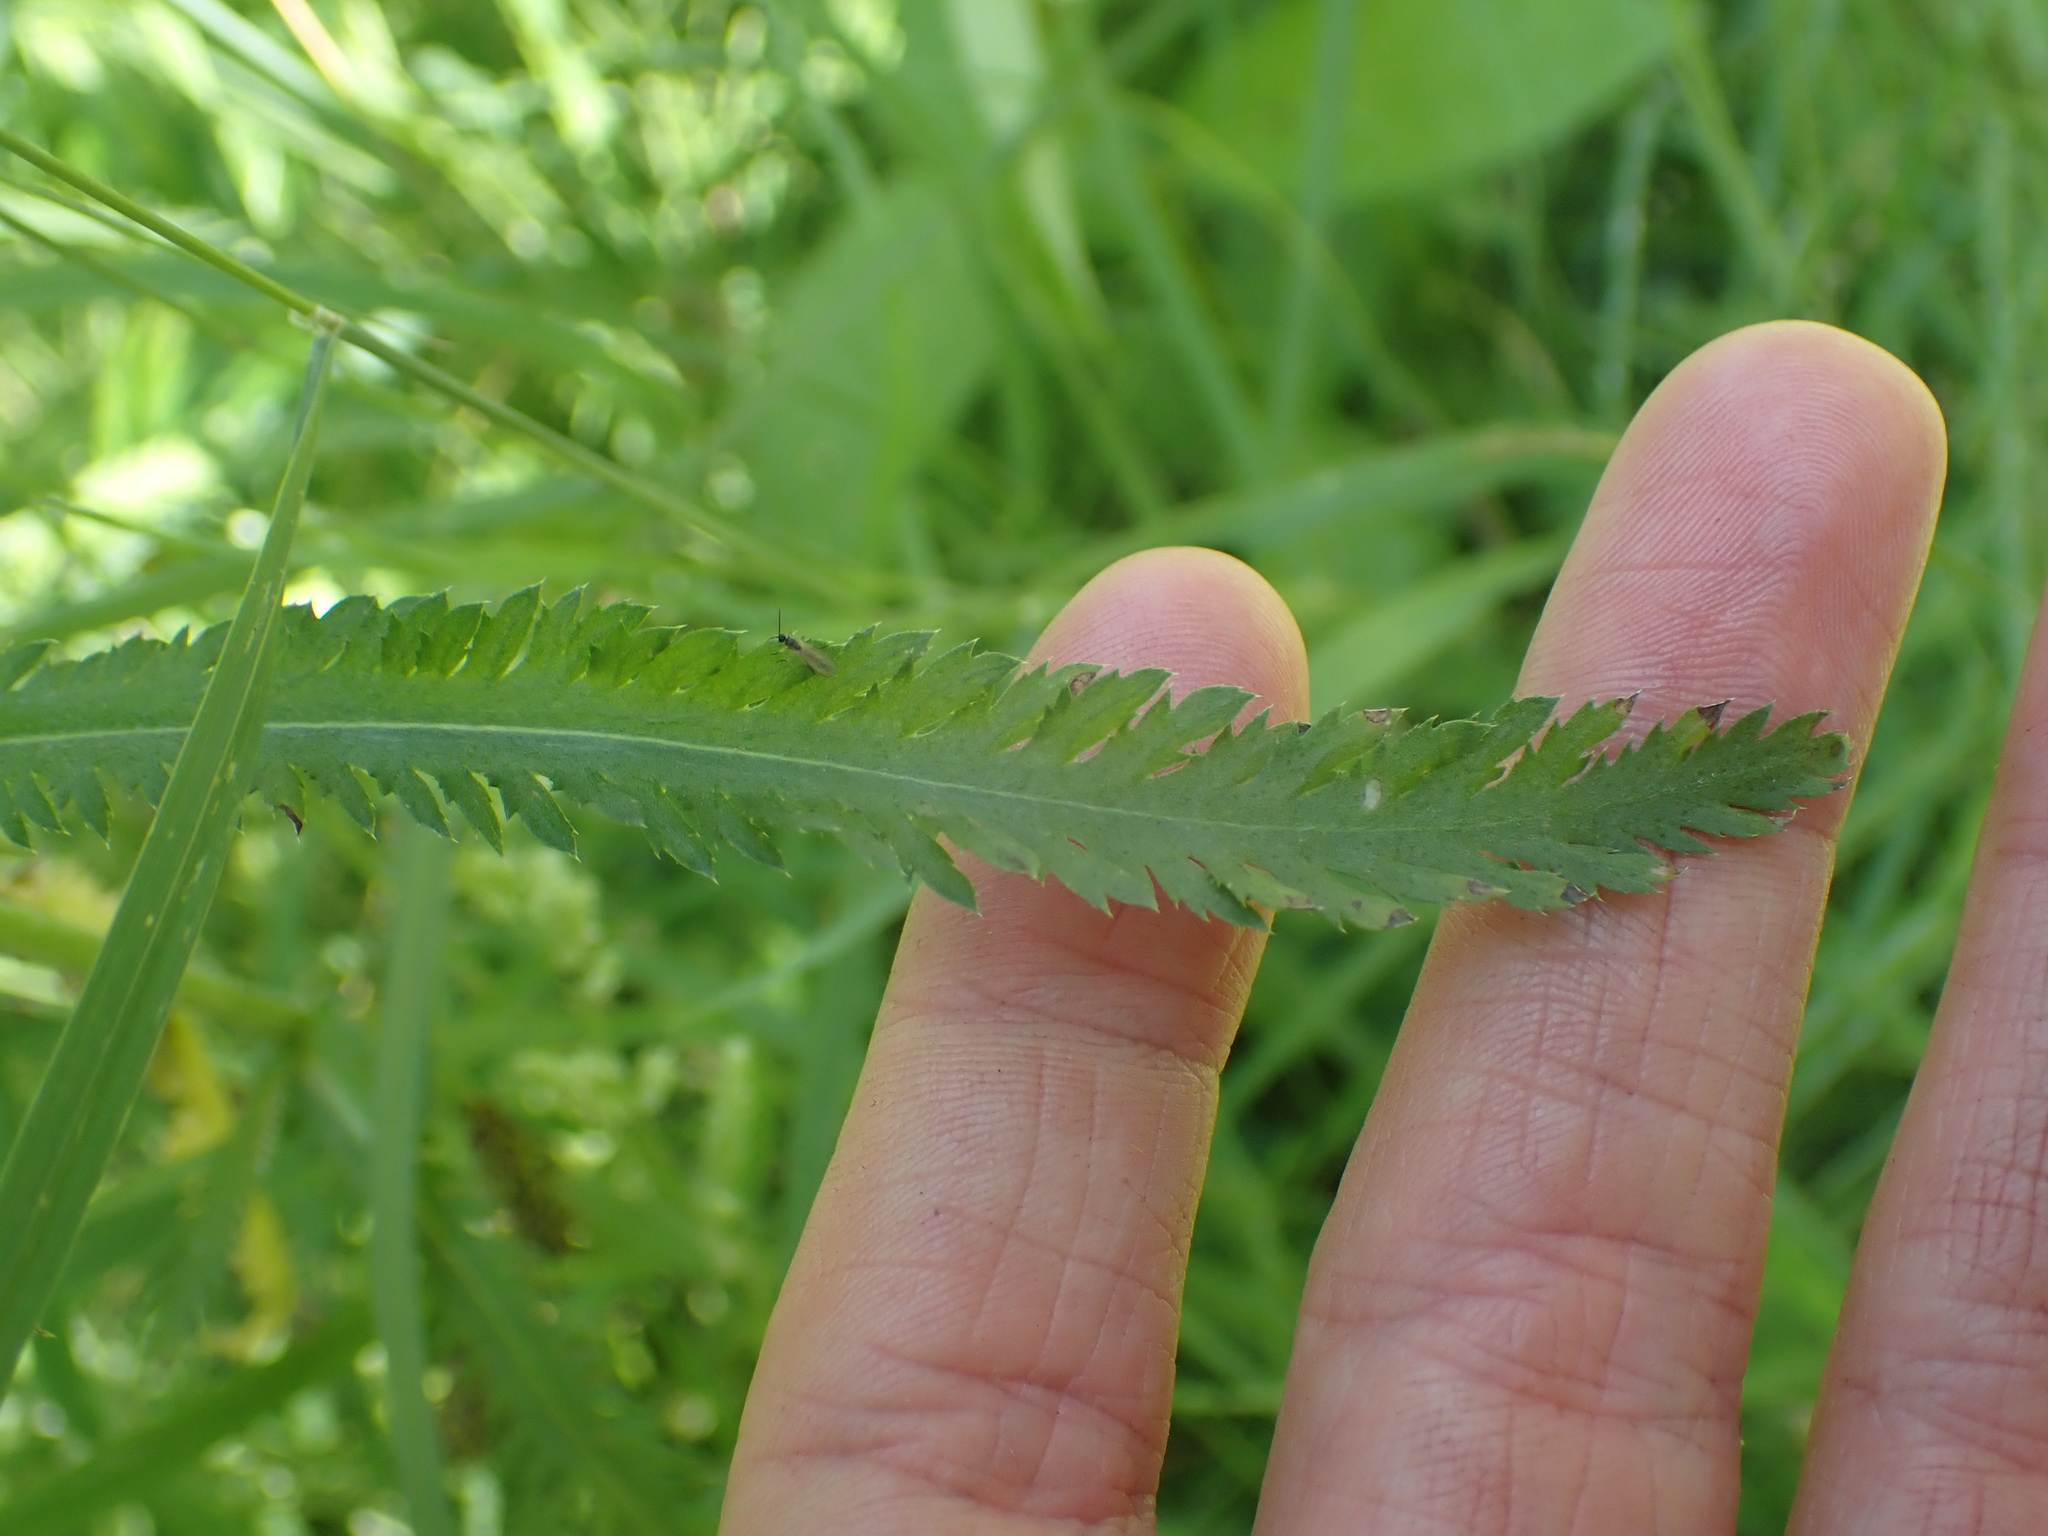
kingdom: Plantae
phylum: Tracheophyta
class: Magnoliopsida
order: Asterales
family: Asteraceae
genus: Achillea
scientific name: Achillea alpina
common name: Siberian yarrow
